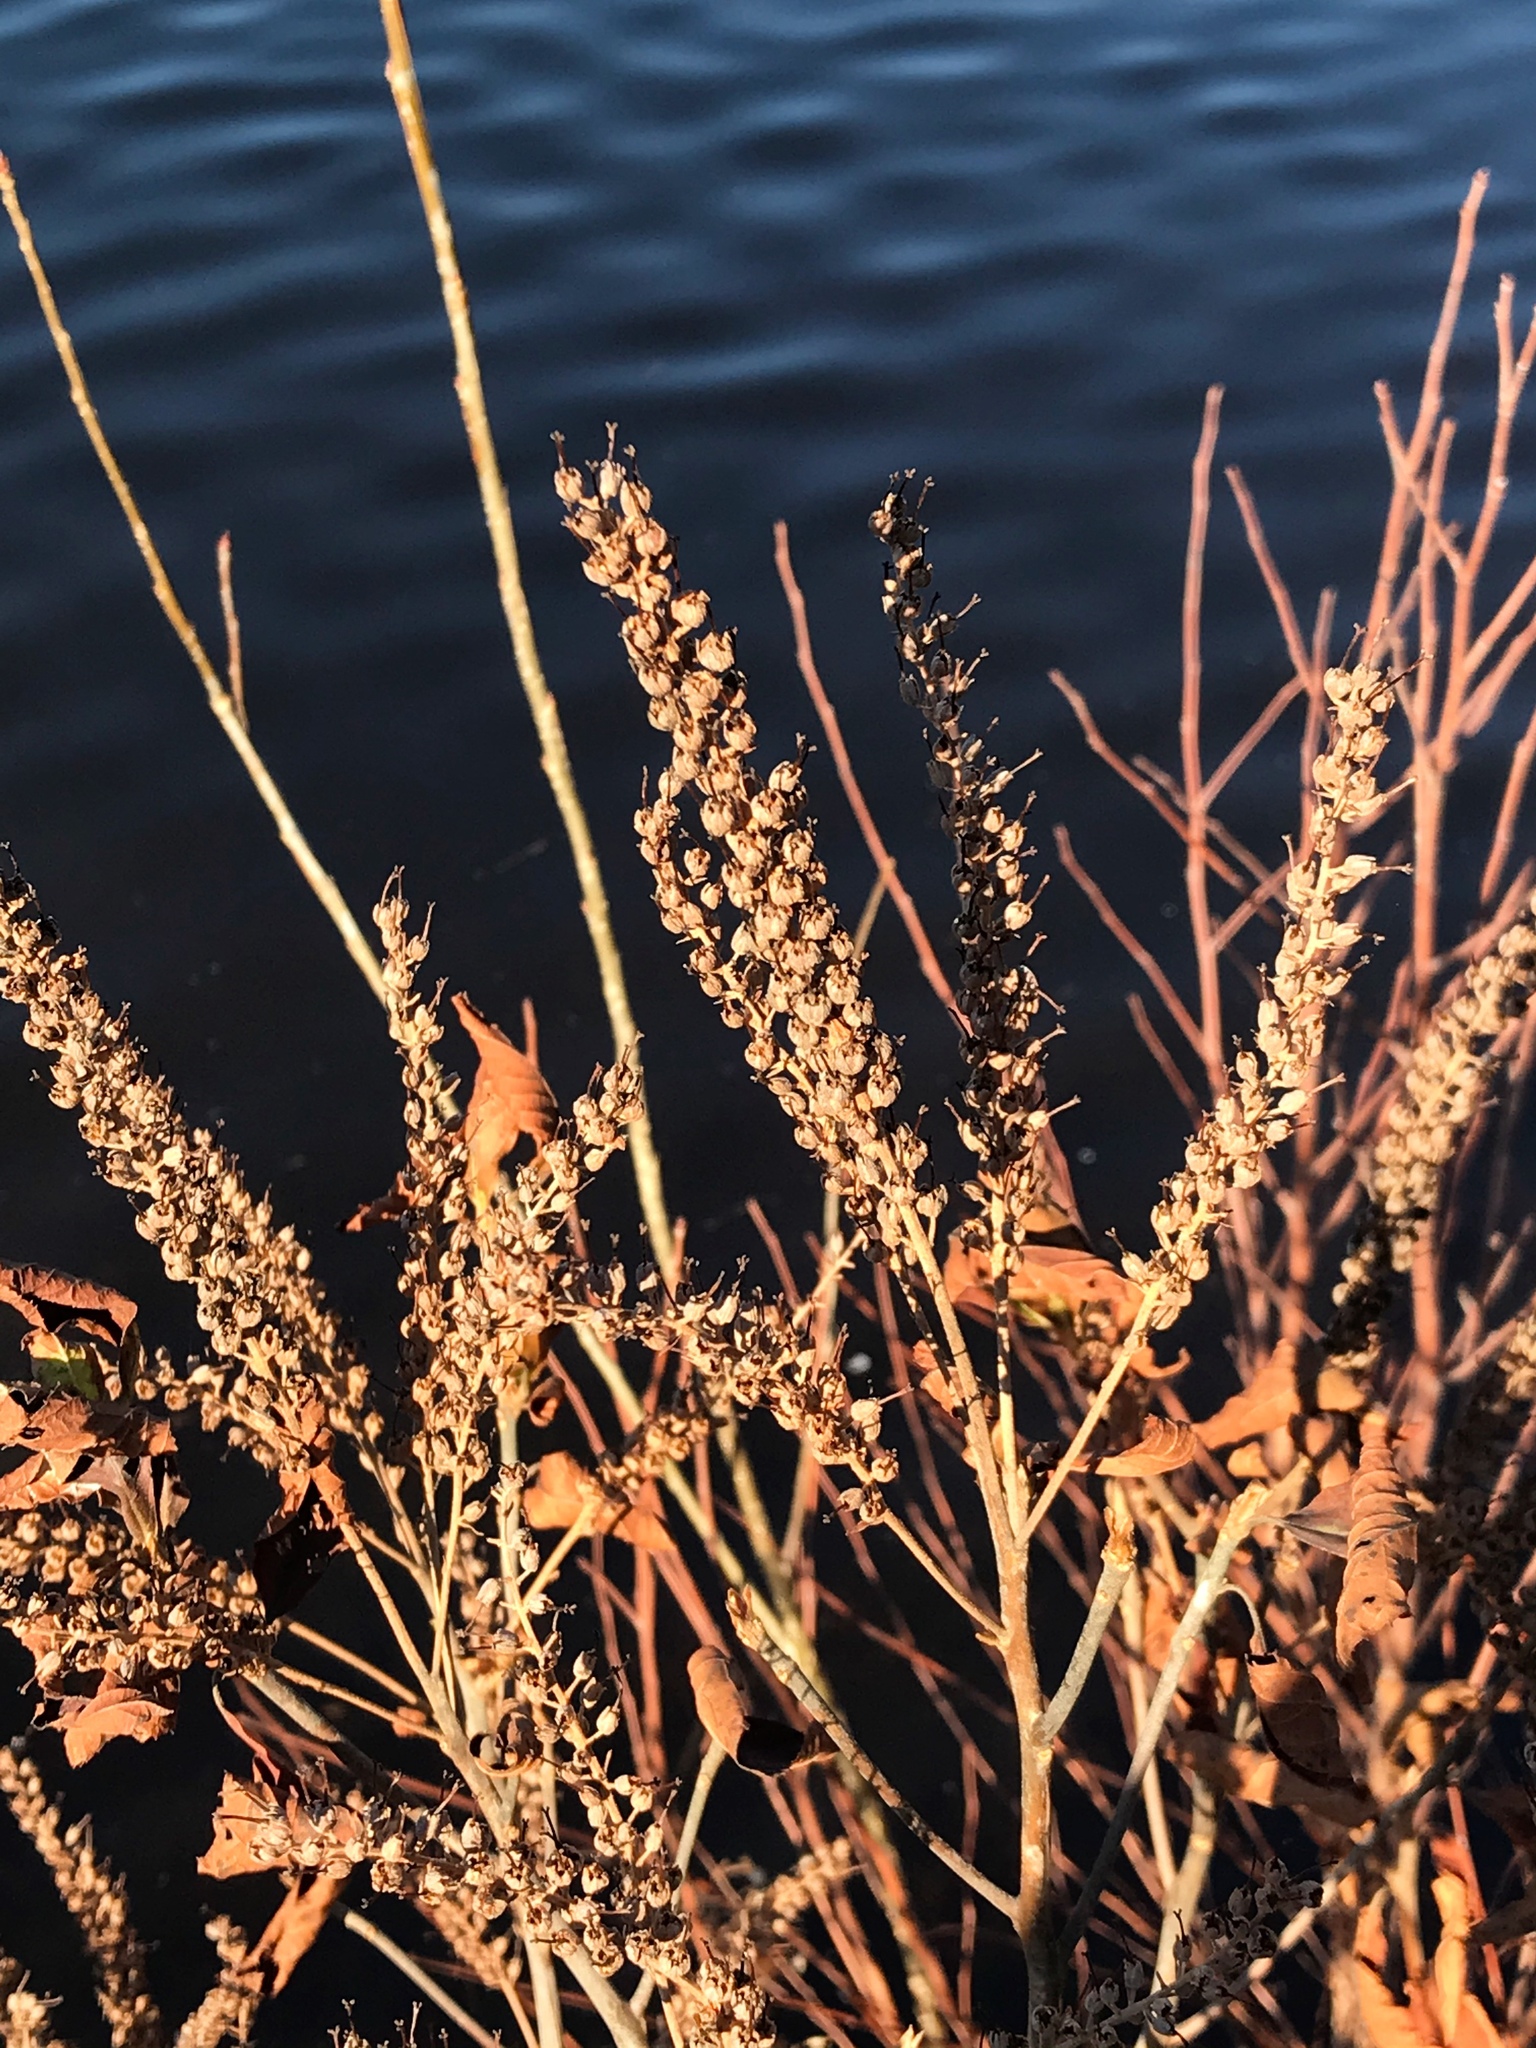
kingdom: Plantae
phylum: Tracheophyta
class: Magnoliopsida
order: Ericales
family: Clethraceae
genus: Clethra
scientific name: Clethra alnifolia
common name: Sweet pepperbush
